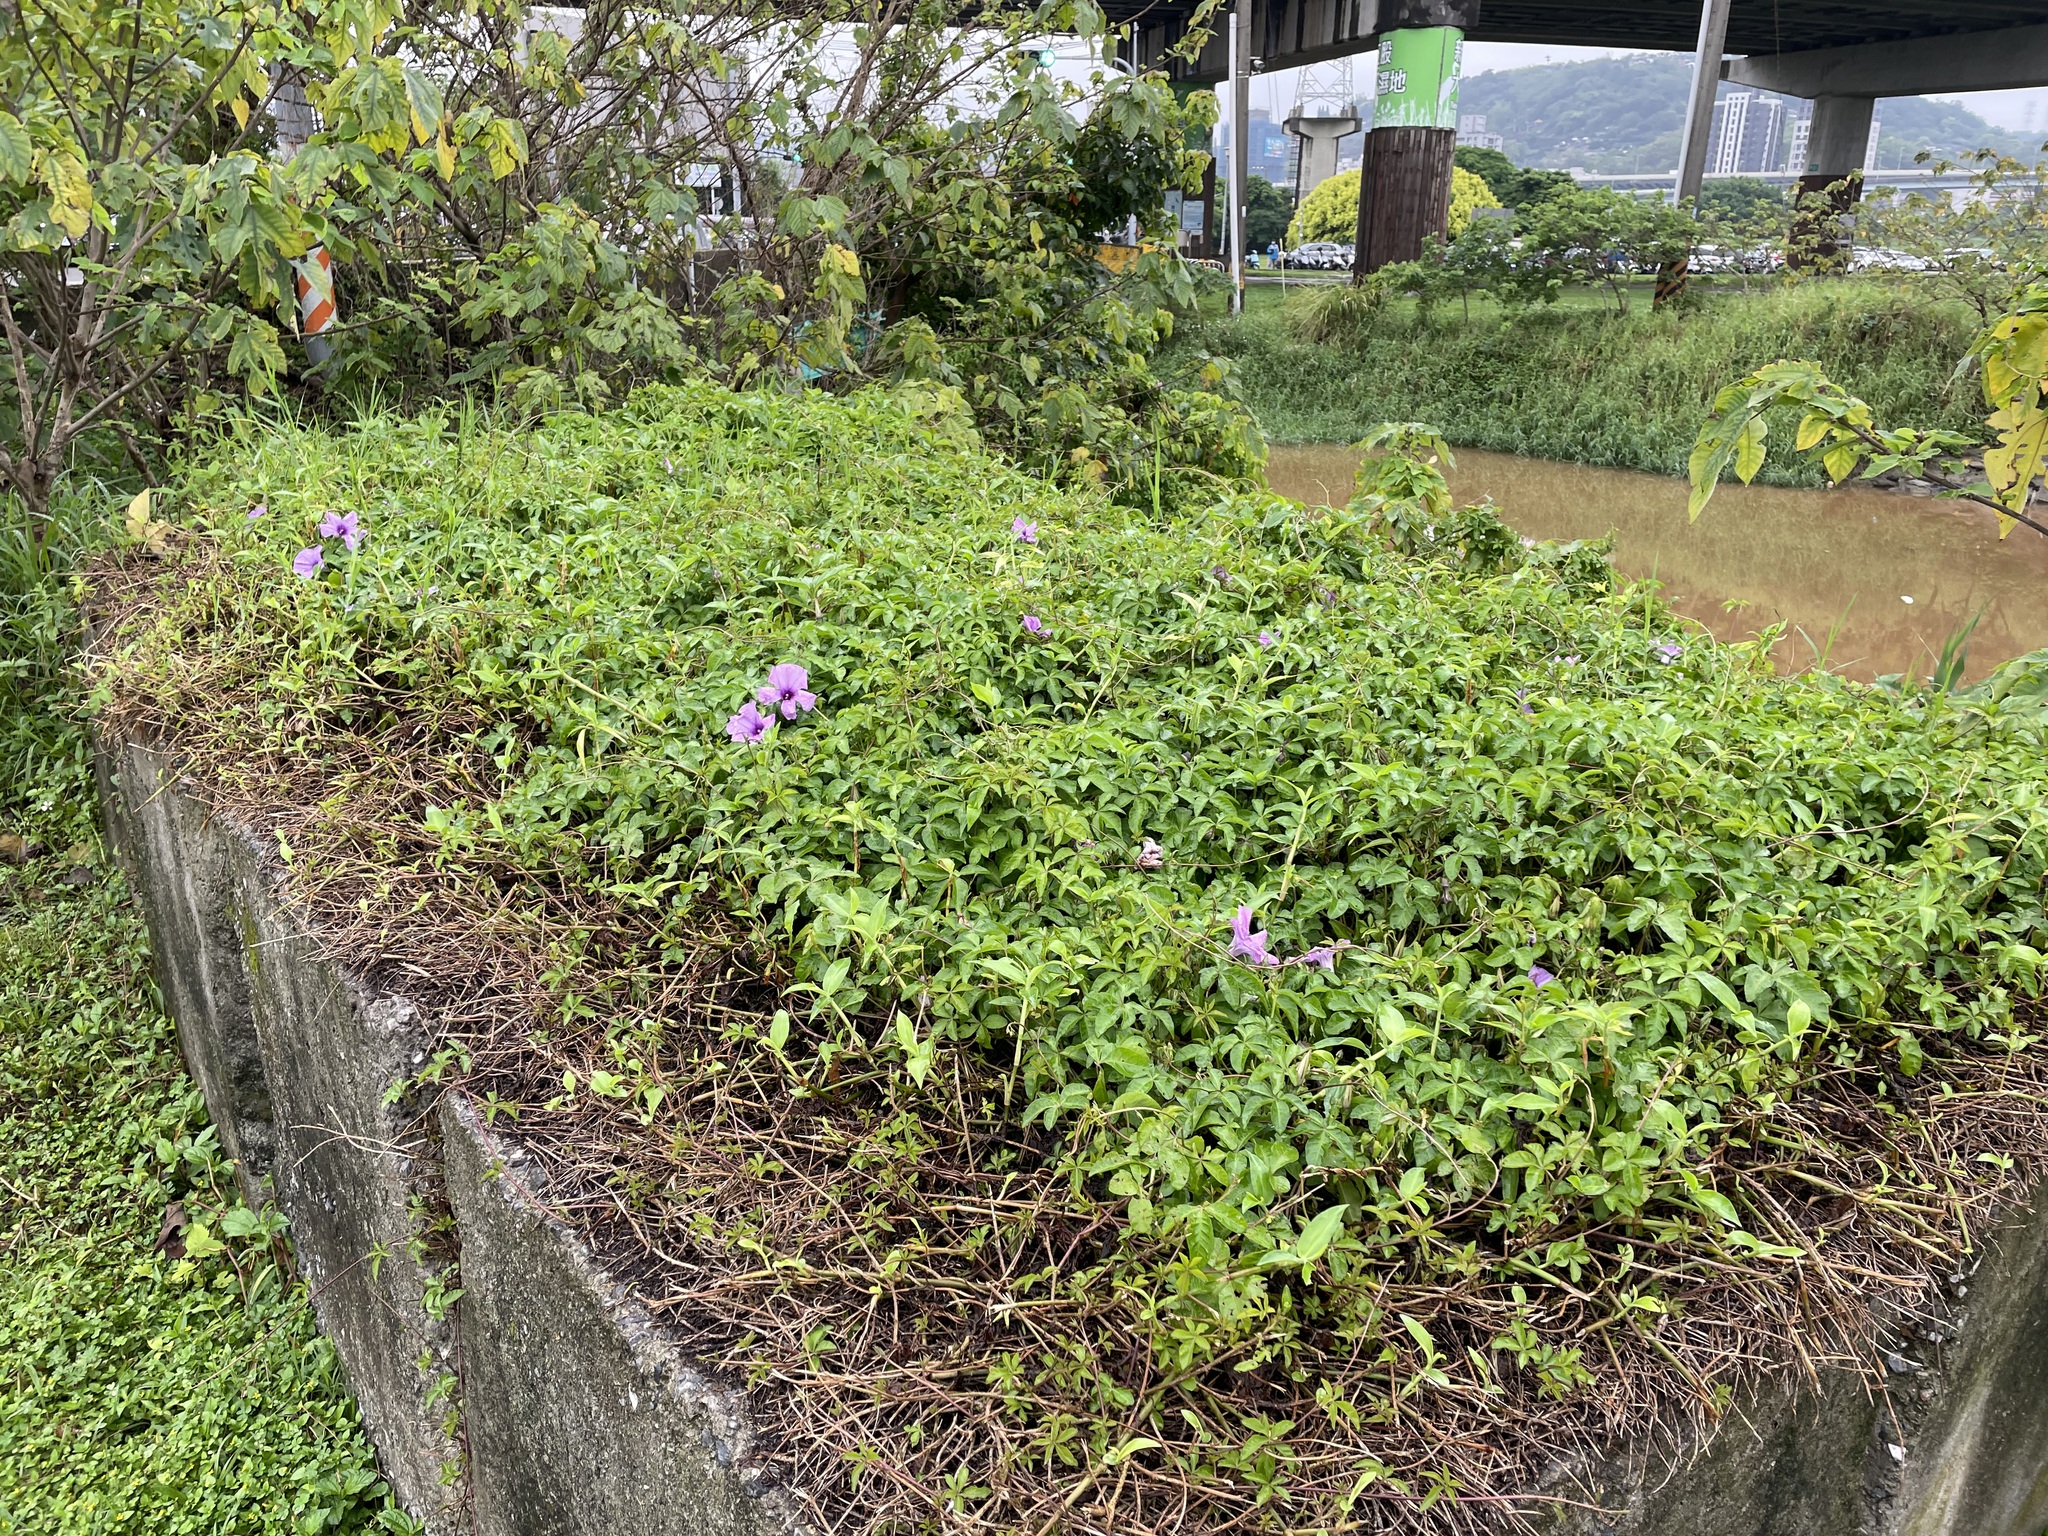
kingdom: Plantae
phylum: Tracheophyta
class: Magnoliopsida
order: Solanales
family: Convolvulaceae
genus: Ipomoea
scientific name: Ipomoea cairica
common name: Mile a minute vine
